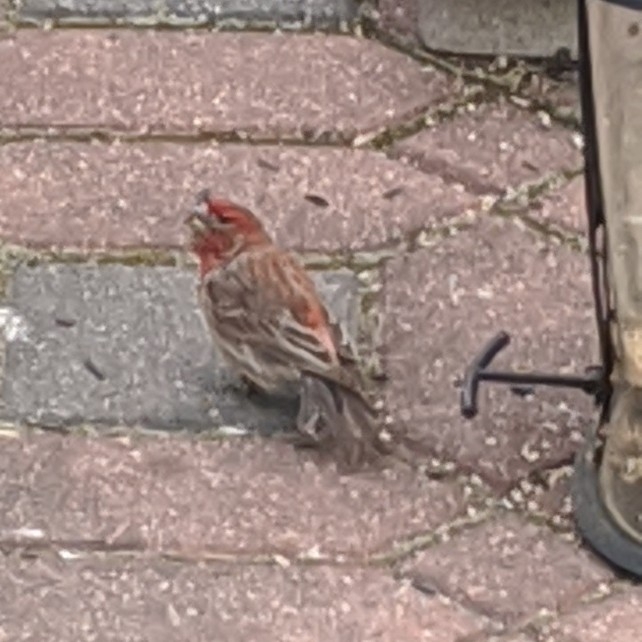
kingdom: Animalia
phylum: Chordata
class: Aves
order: Passeriformes
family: Fringillidae
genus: Haemorhous
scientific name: Haemorhous mexicanus
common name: House finch
